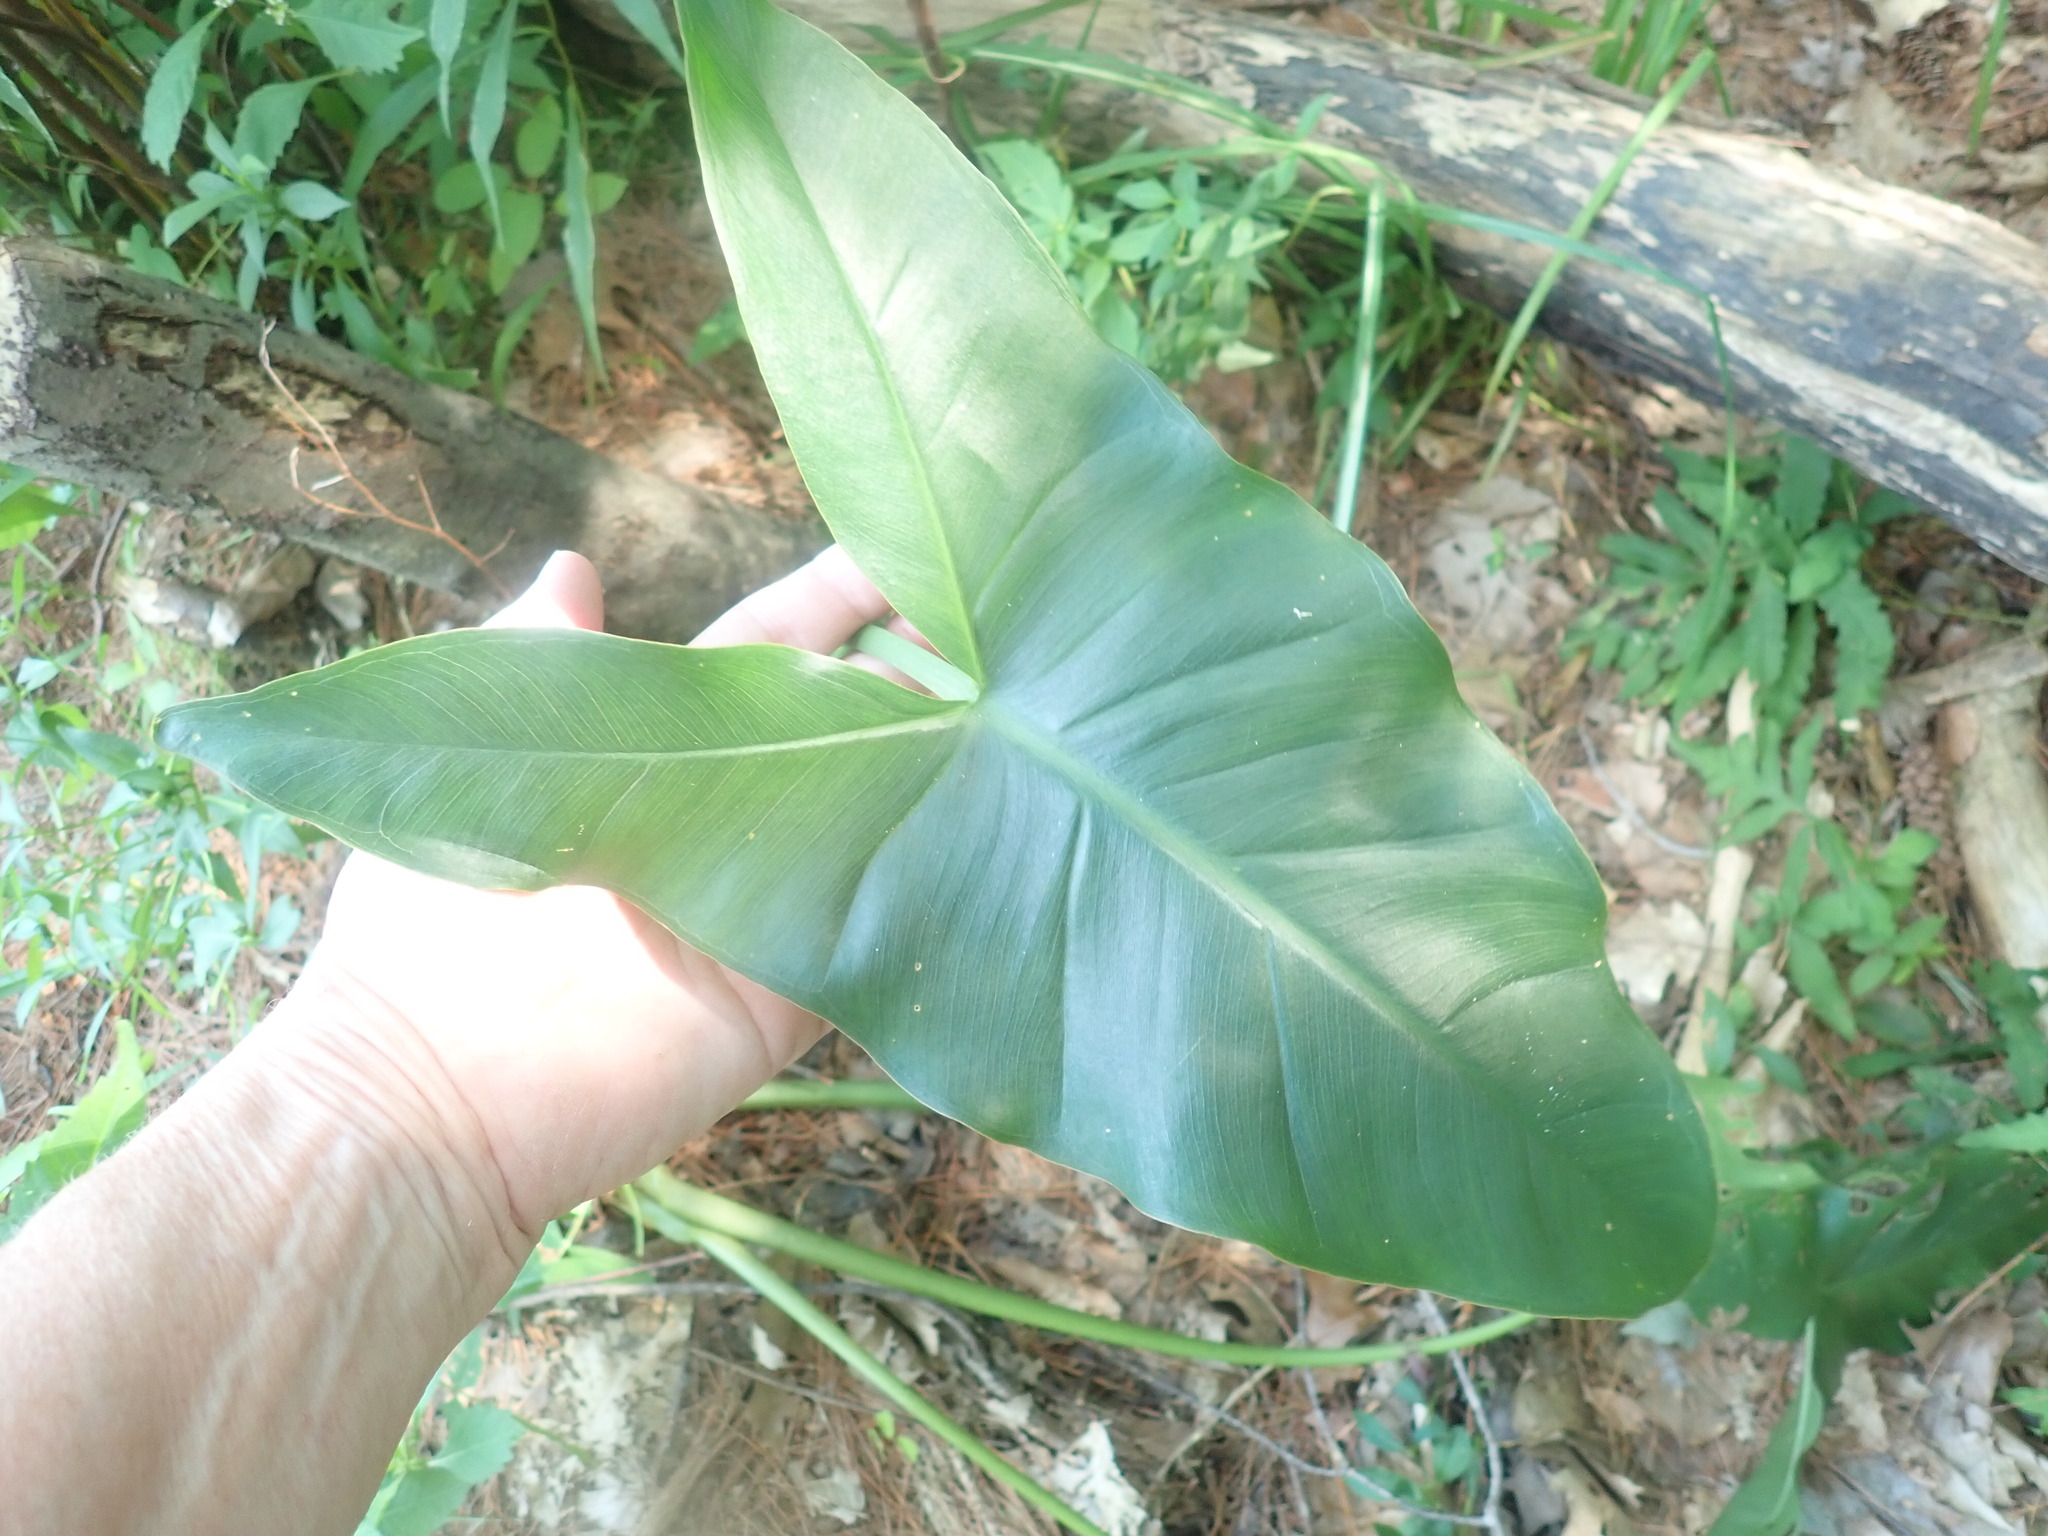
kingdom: Plantae
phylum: Tracheophyta
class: Liliopsida
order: Alismatales
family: Araceae
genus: Peltandra
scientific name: Peltandra virginica
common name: Arrow arum
